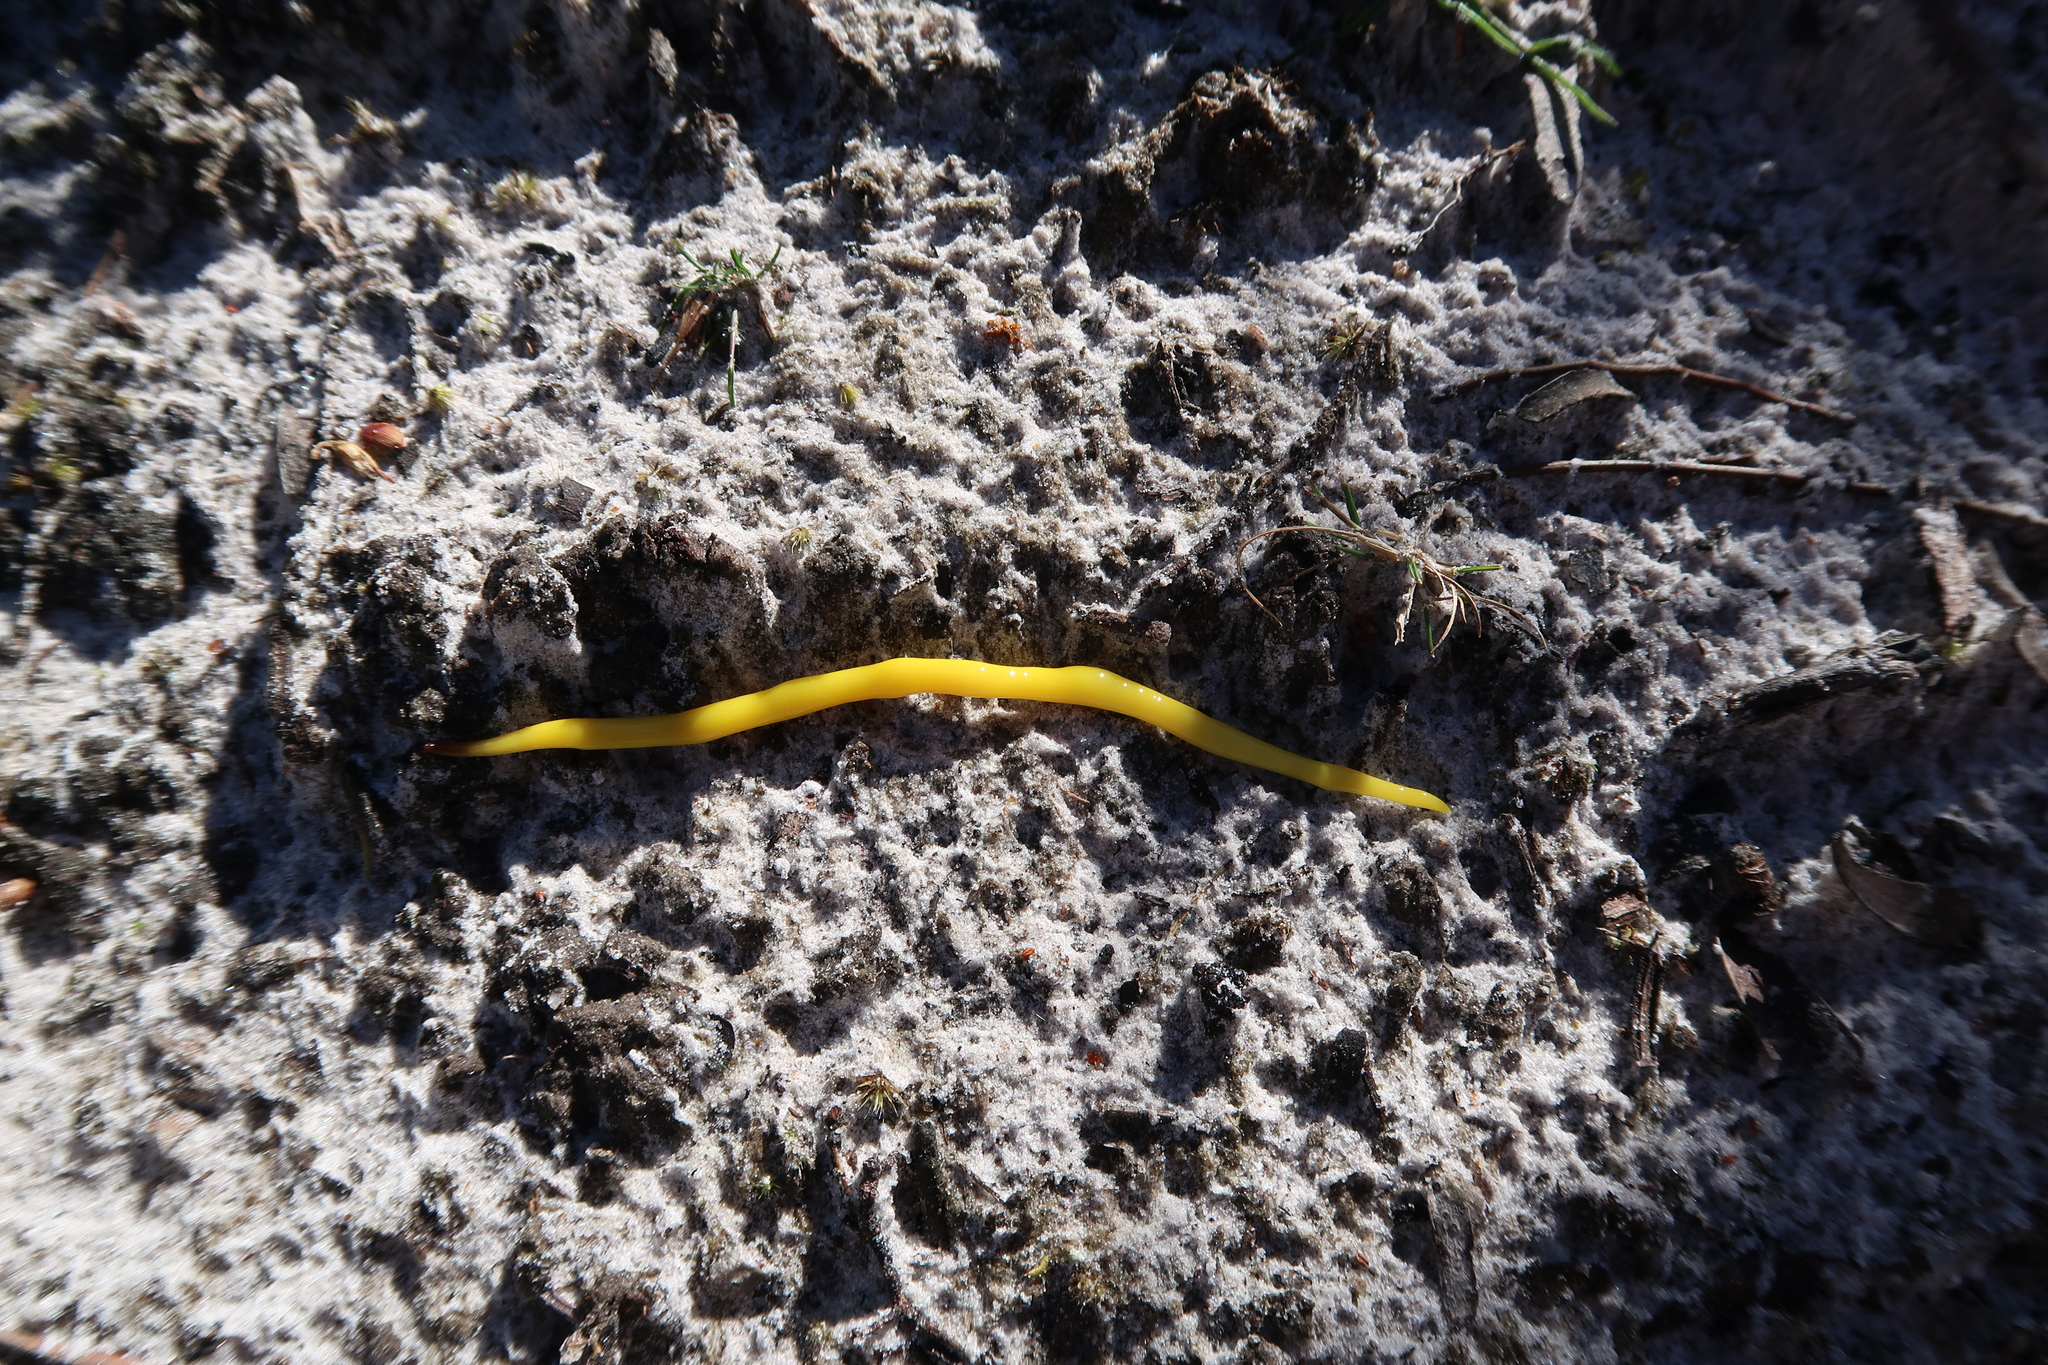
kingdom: Animalia
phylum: Platyhelminthes
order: Tricladida
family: Geoplanidae
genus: Fletchamia
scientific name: Fletchamia sugdeni
